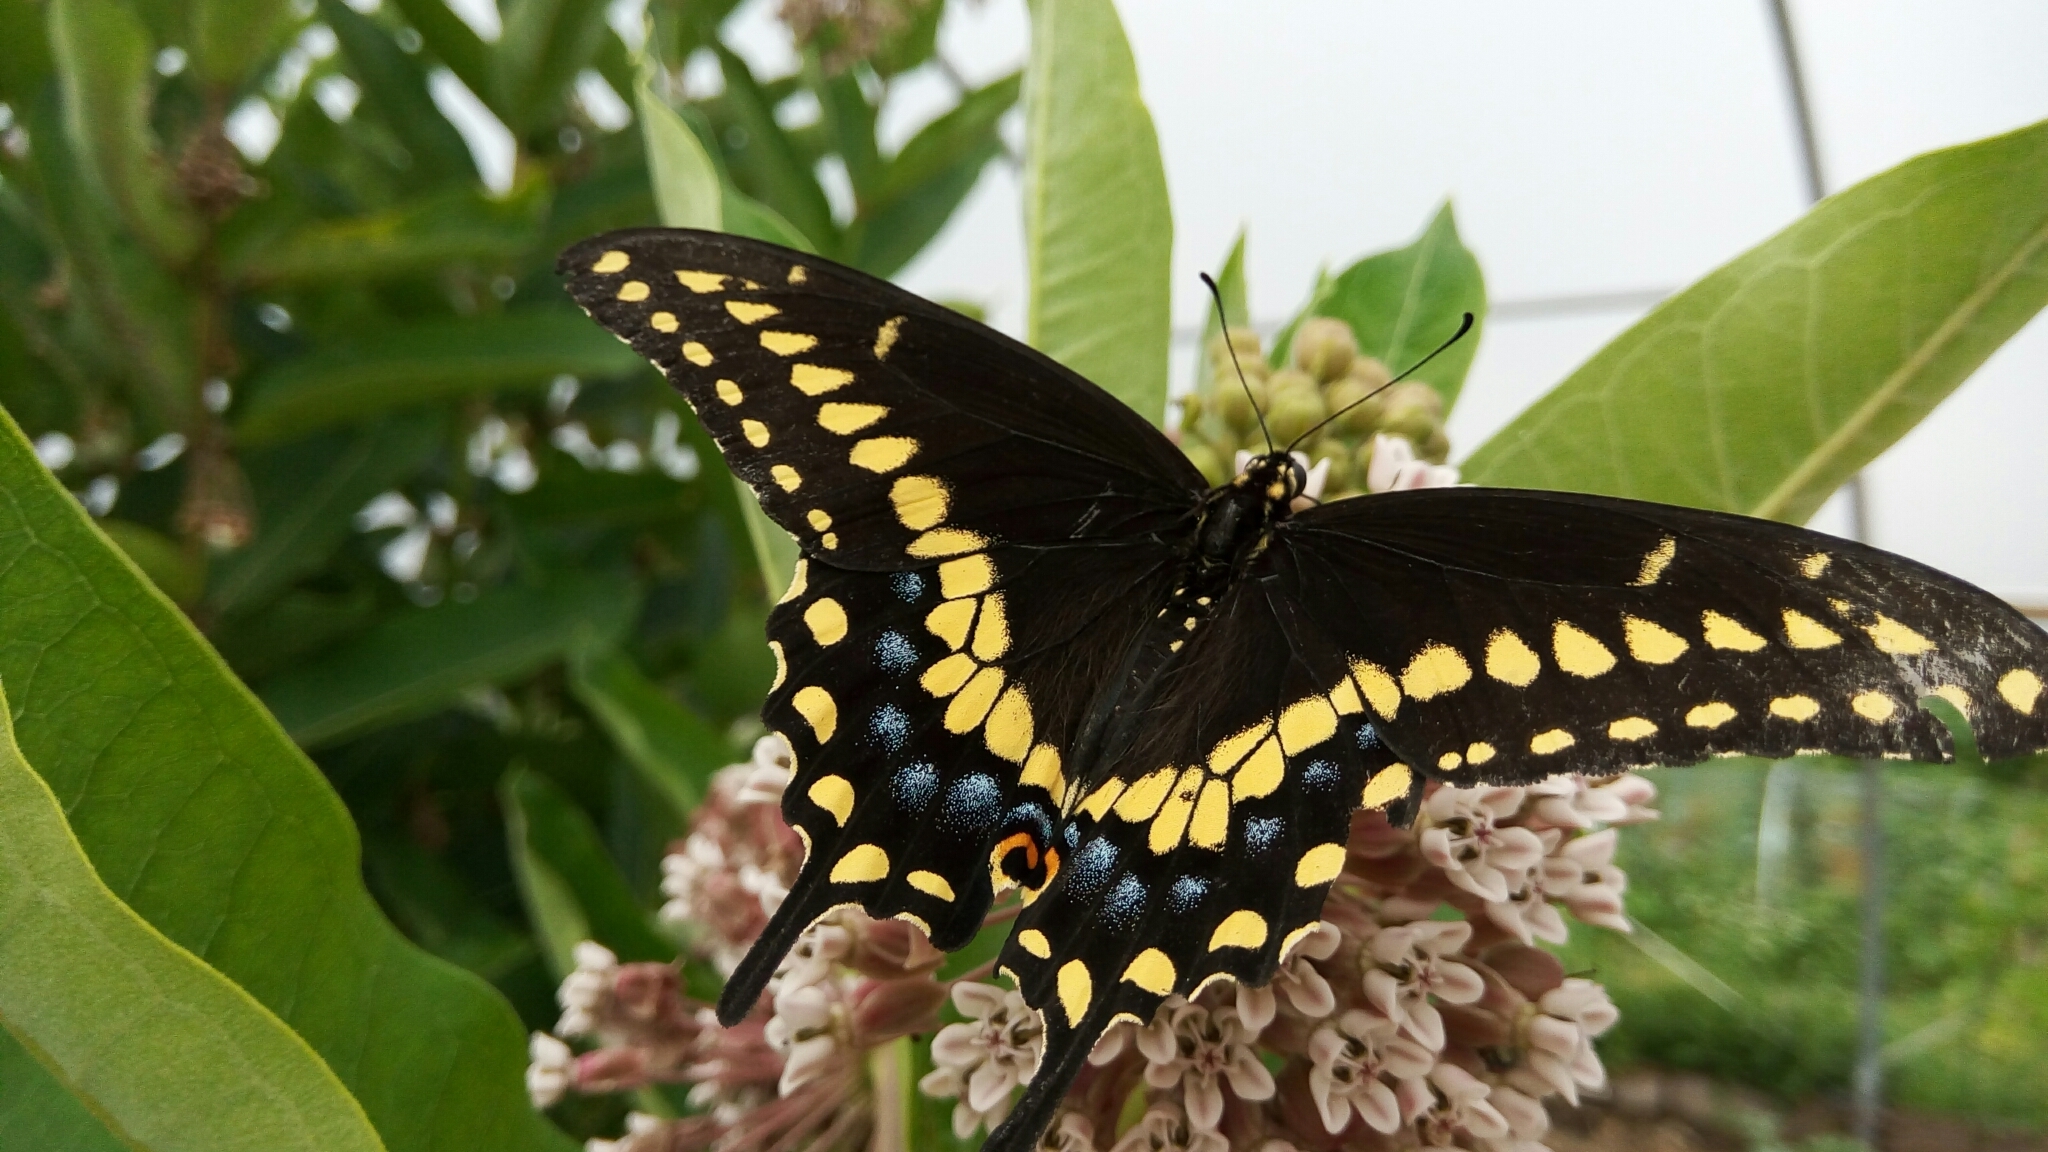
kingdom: Animalia
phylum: Arthropoda
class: Insecta
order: Lepidoptera
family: Papilionidae
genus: Papilio
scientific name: Papilio polyxenes
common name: Black swallowtail
